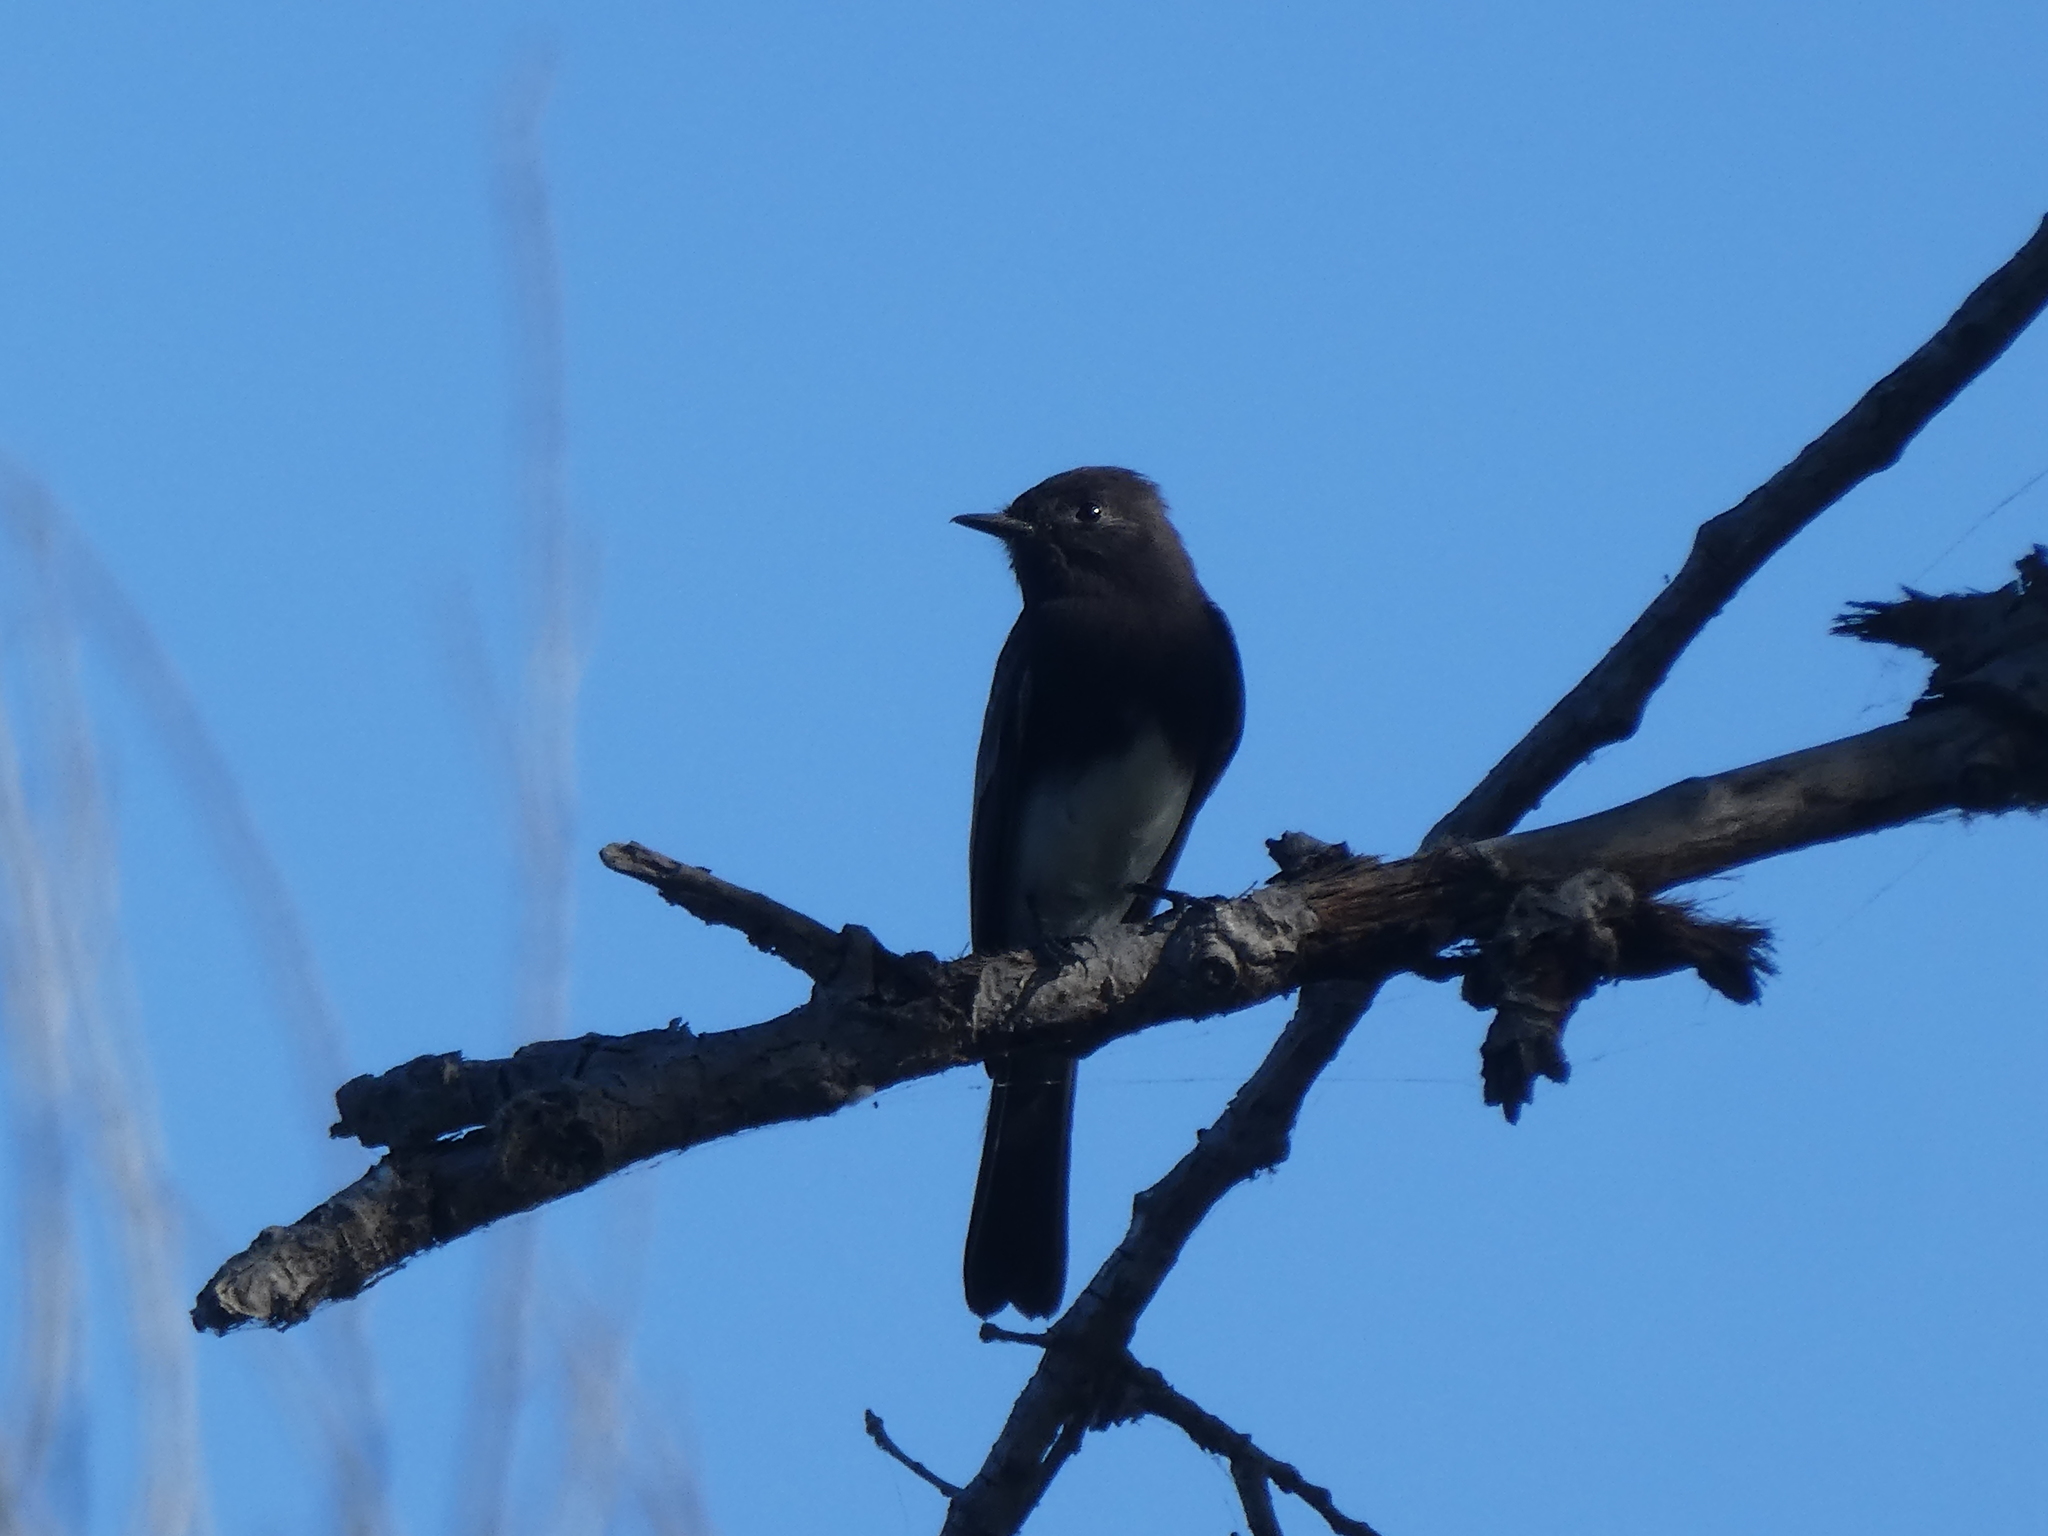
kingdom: Animalia
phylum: Chordata
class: Aves
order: Passeriformes
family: Tyrannidae
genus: Sayornis
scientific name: Sayornis nigricans
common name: Black phoebe
